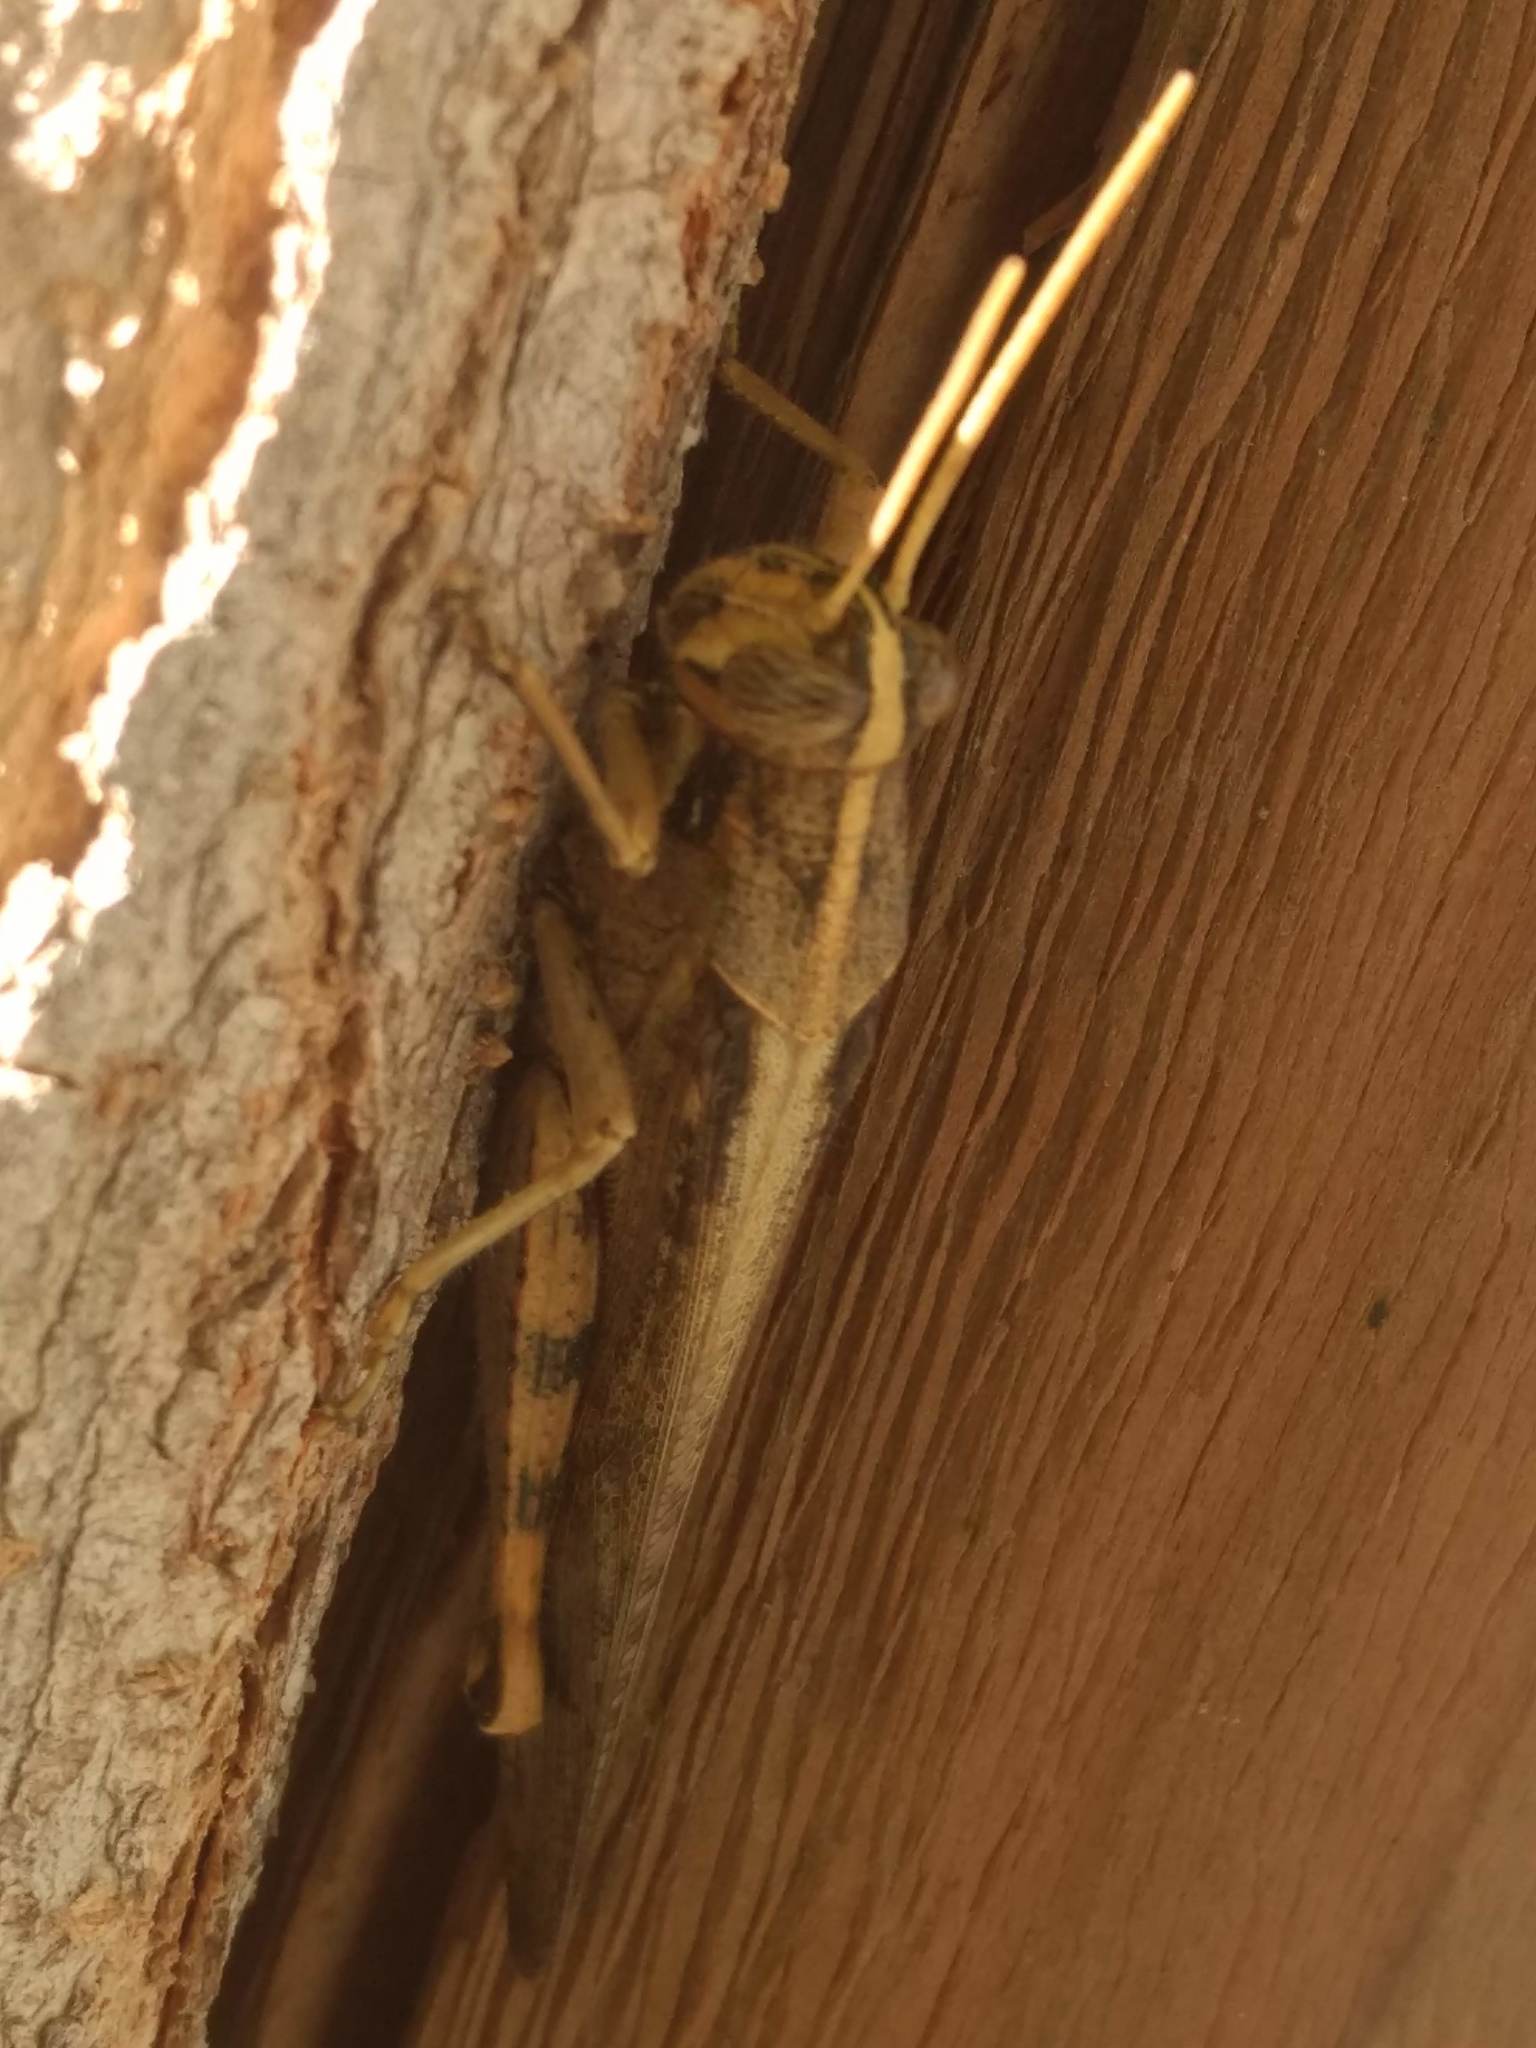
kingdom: Animalia
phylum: Arthropoda
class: Insecta
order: Orthoptera
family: Acrididae
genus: Schistocerca
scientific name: Schistocerca nitens
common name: Vagrant grasshopper
